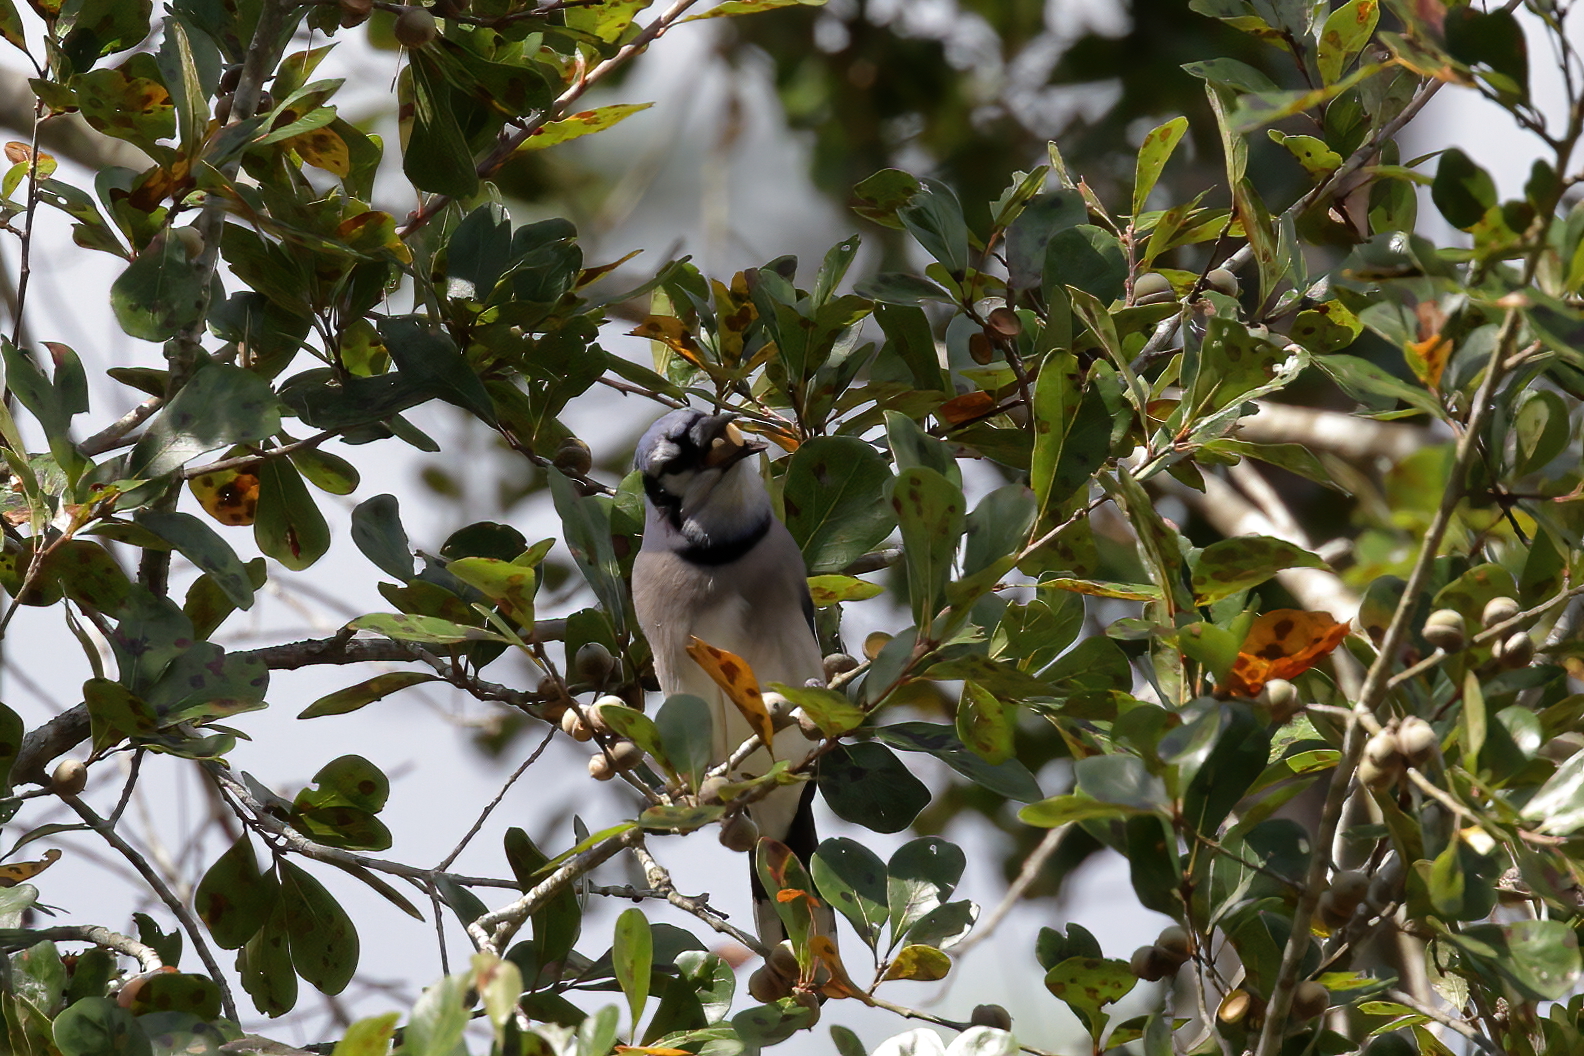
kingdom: Animalia
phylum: Chordata
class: Aves
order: Passeriformes
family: Corvidae
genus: Cyanocitta
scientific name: Cyanocitta cristata
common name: Blue jay
